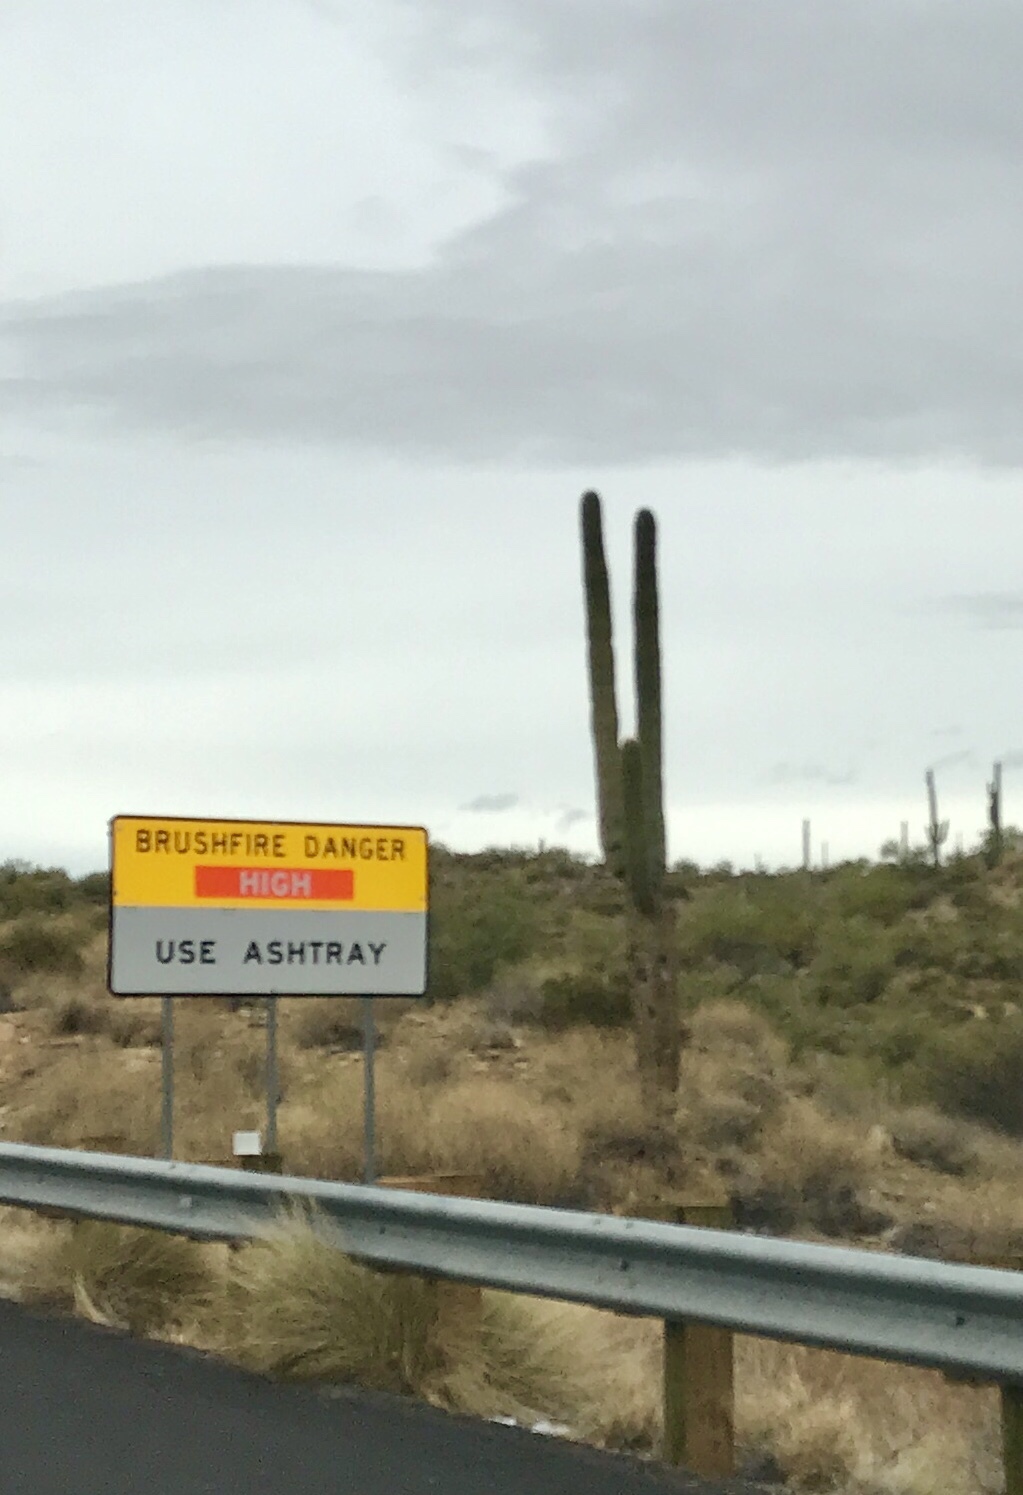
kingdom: Plantae
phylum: Tracheophyta
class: Magnoliopsida
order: Caryophyllales
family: Cactaceae
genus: Carnegiea
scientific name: Carnegiea gigantea
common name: Saguaro
